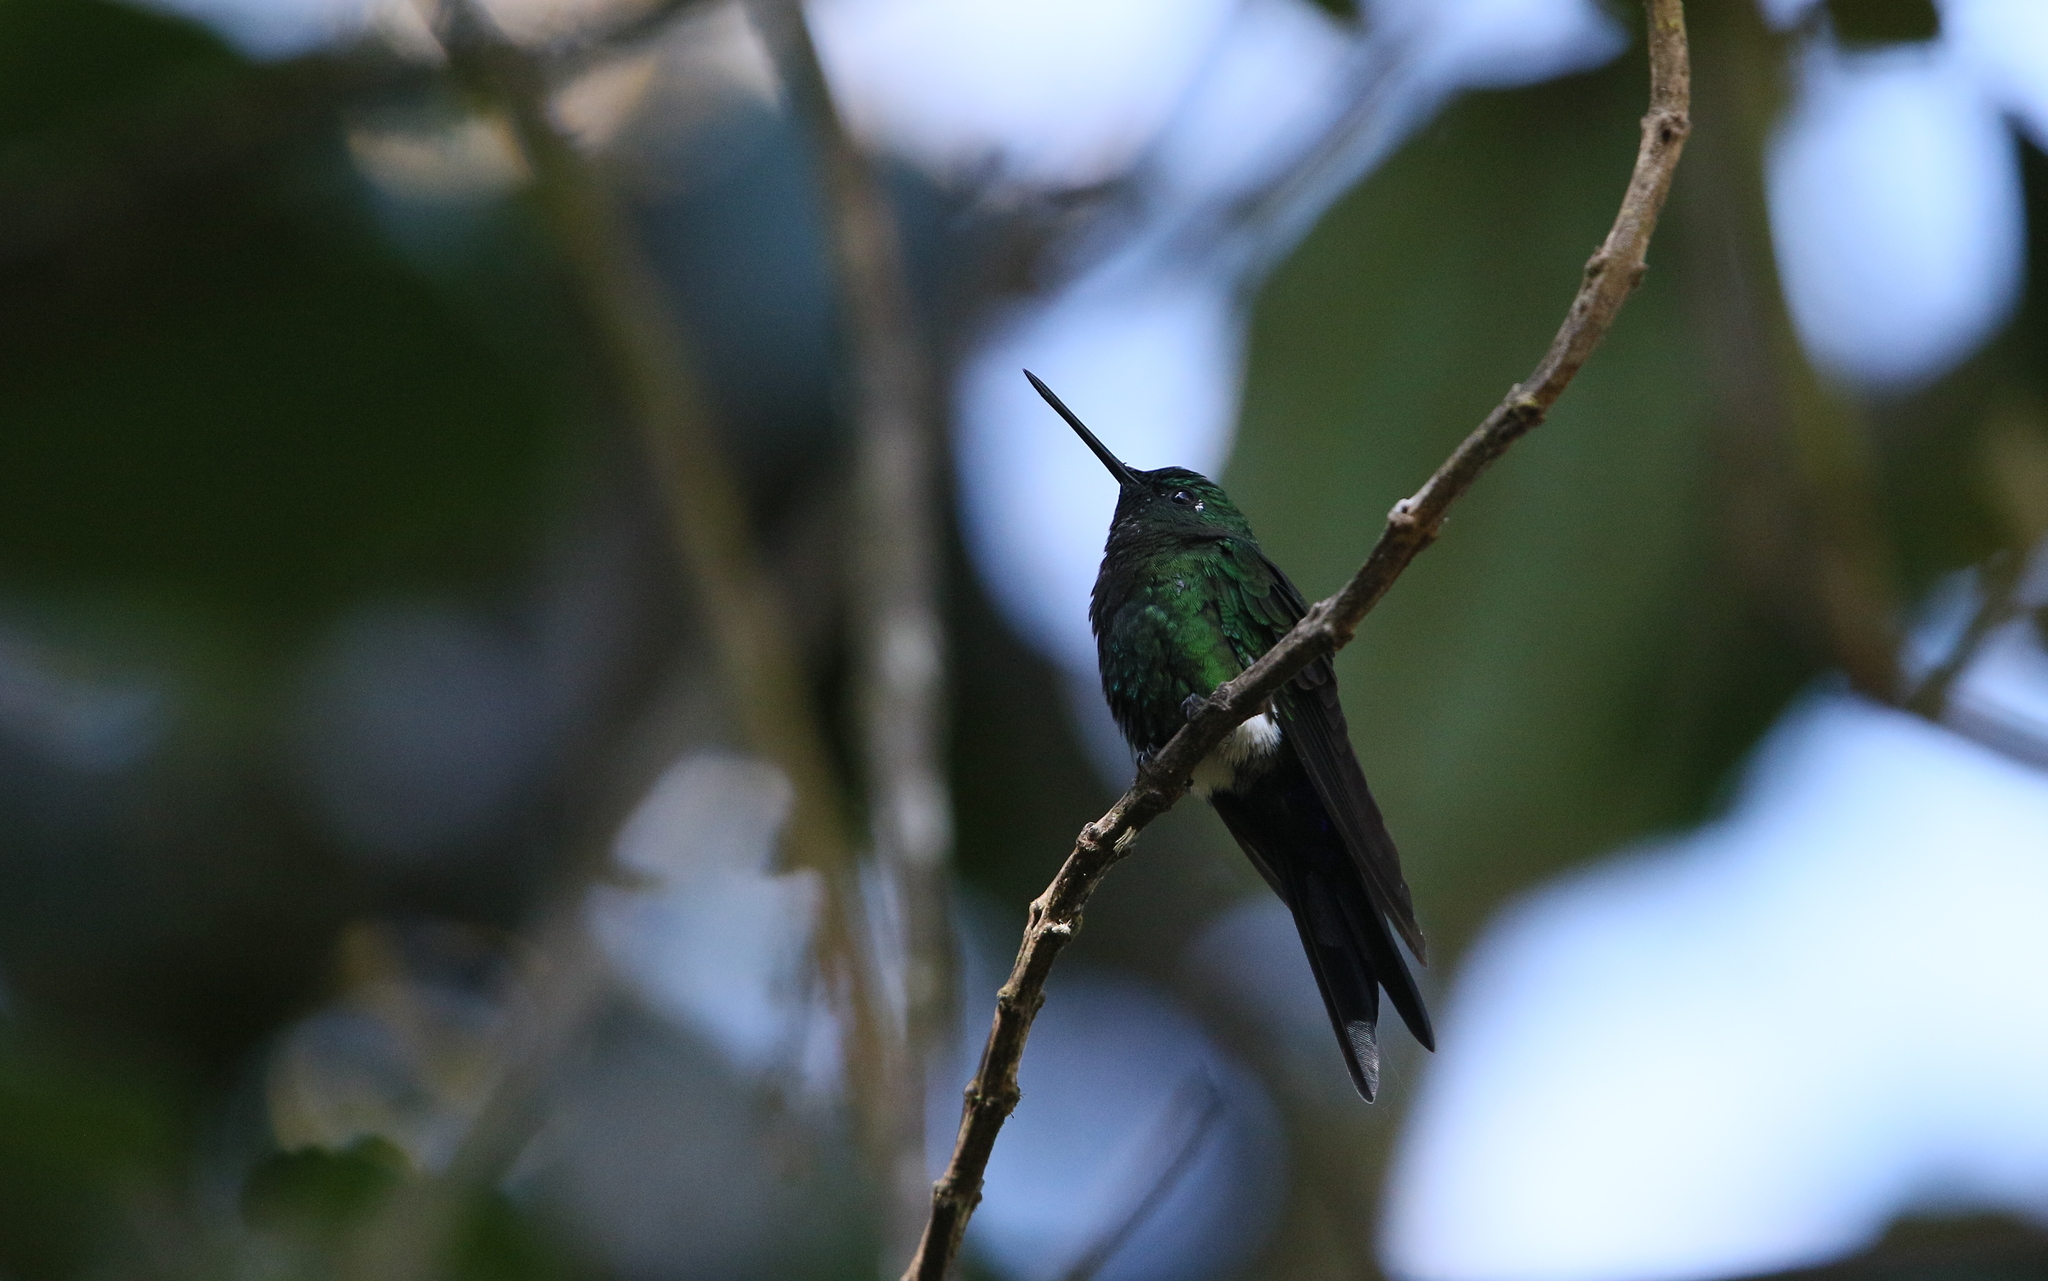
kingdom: Animalia
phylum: Chordata
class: Aves
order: Apodiformes
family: Trochilidae
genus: Eriocnemis
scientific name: Eriocnemis luciani
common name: Sapphire-vented puffleg
